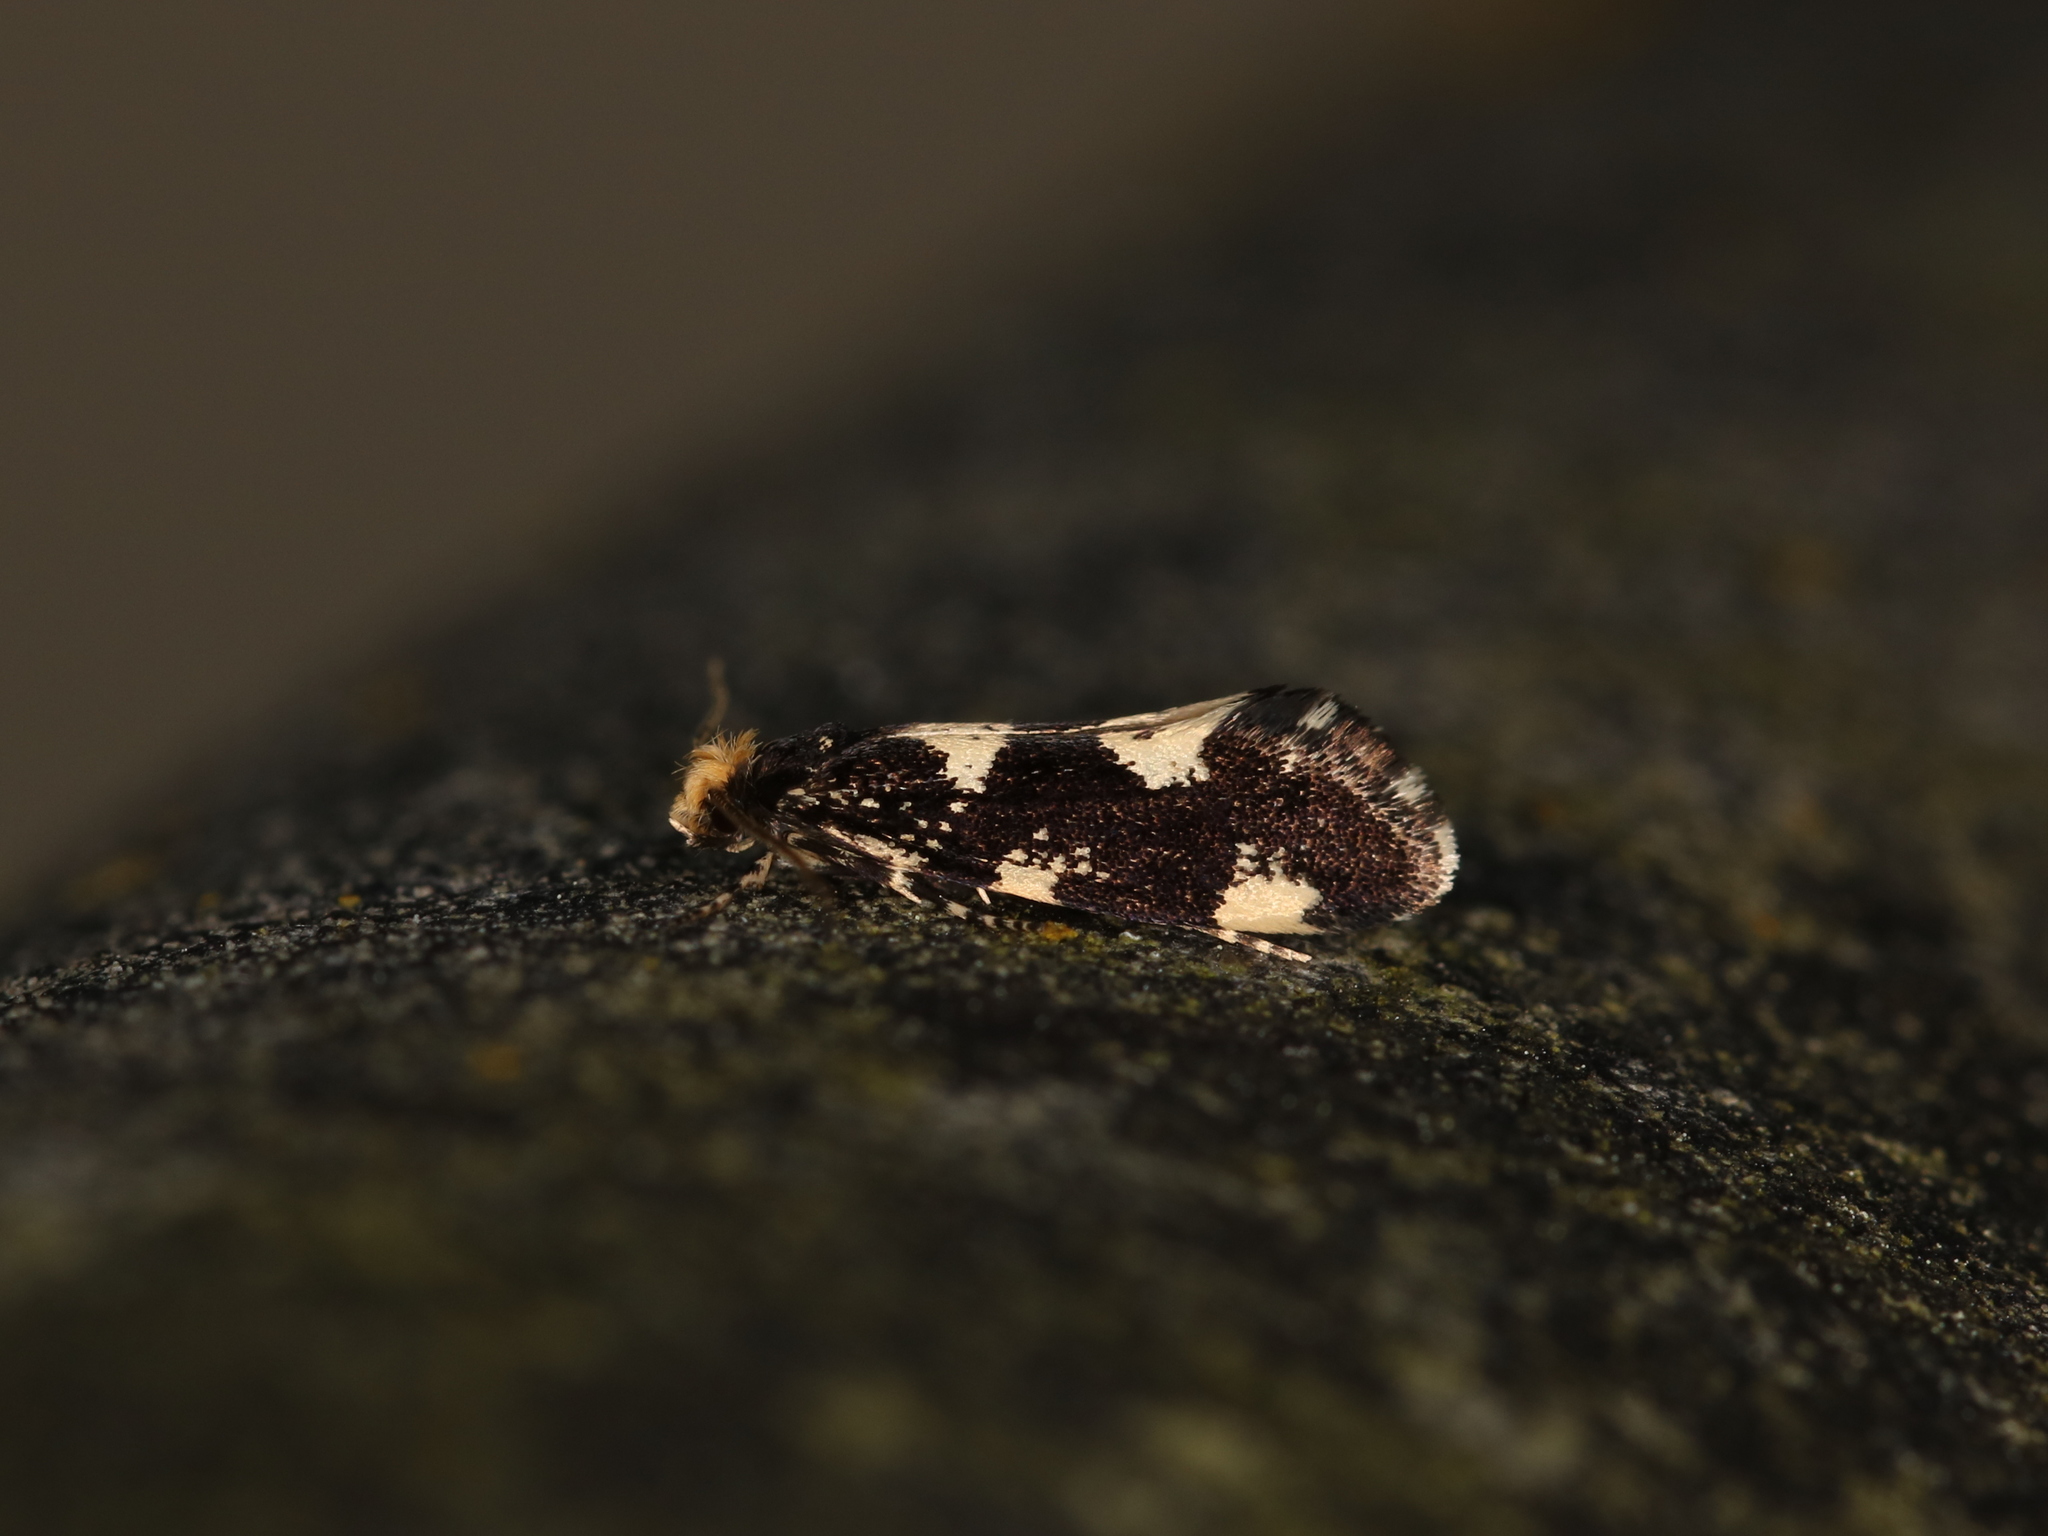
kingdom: Animalia
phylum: Arthropoda
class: Insecta
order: Lepidoptera
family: Tineidae
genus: Triaxomera
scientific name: Triaxomera fulvimitrella
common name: Four-spotted clothes
